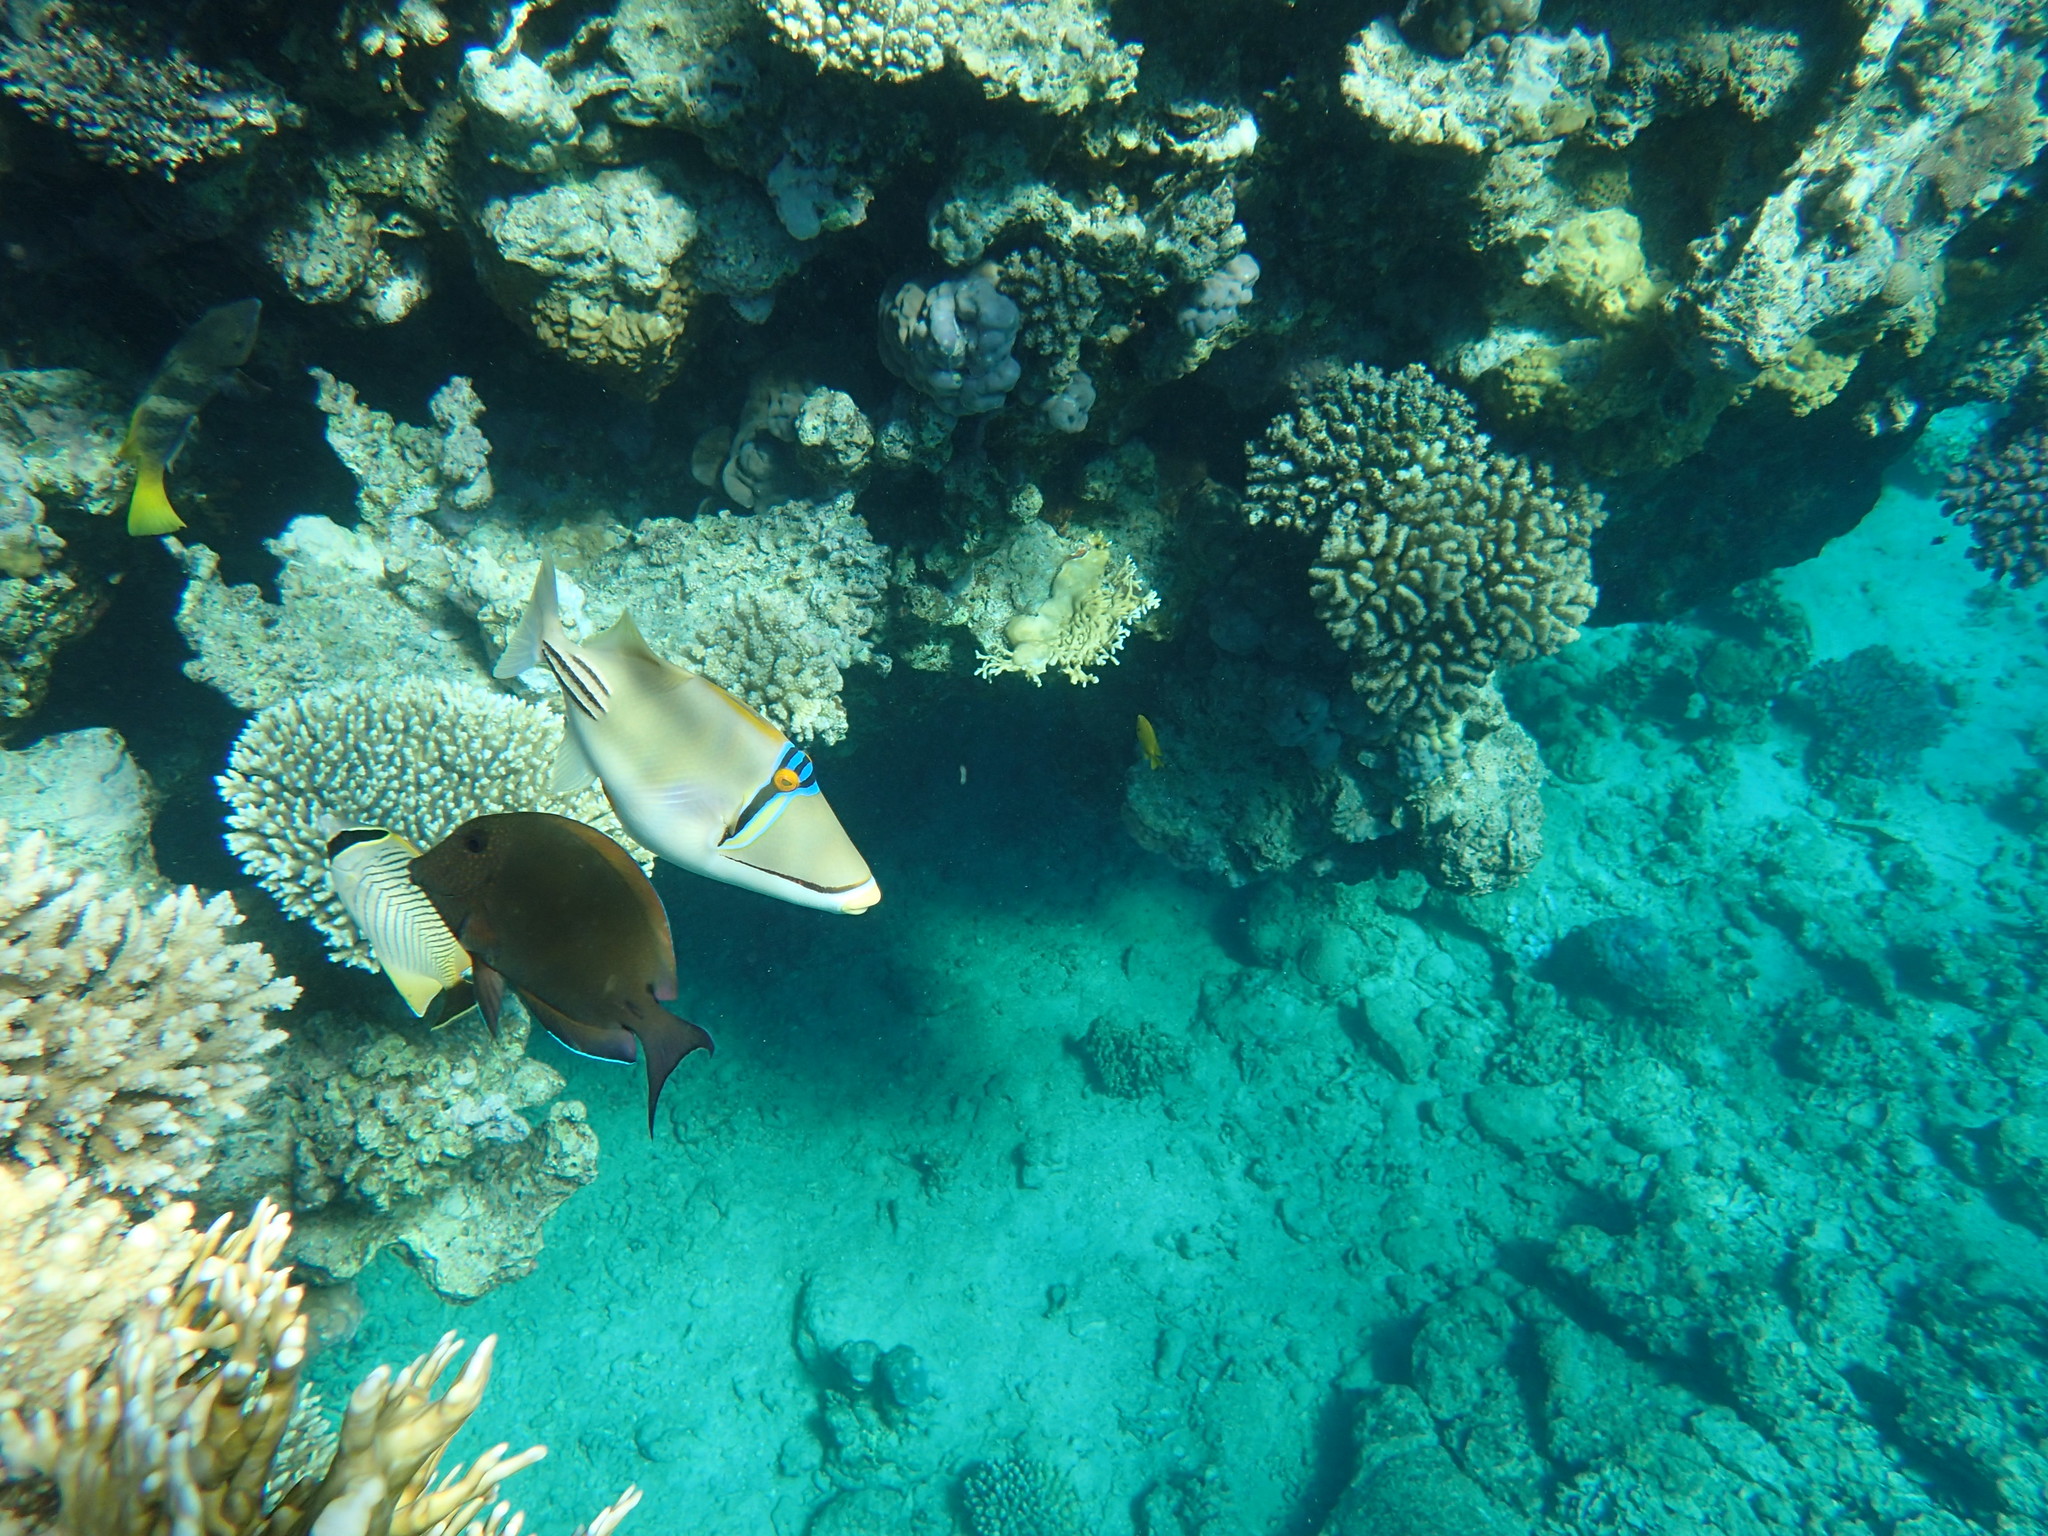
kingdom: Animalia
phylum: Chordata
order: Tetraodontiformes
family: Balistidae
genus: Rhinecanthus
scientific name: Rhinecanthus assasi
